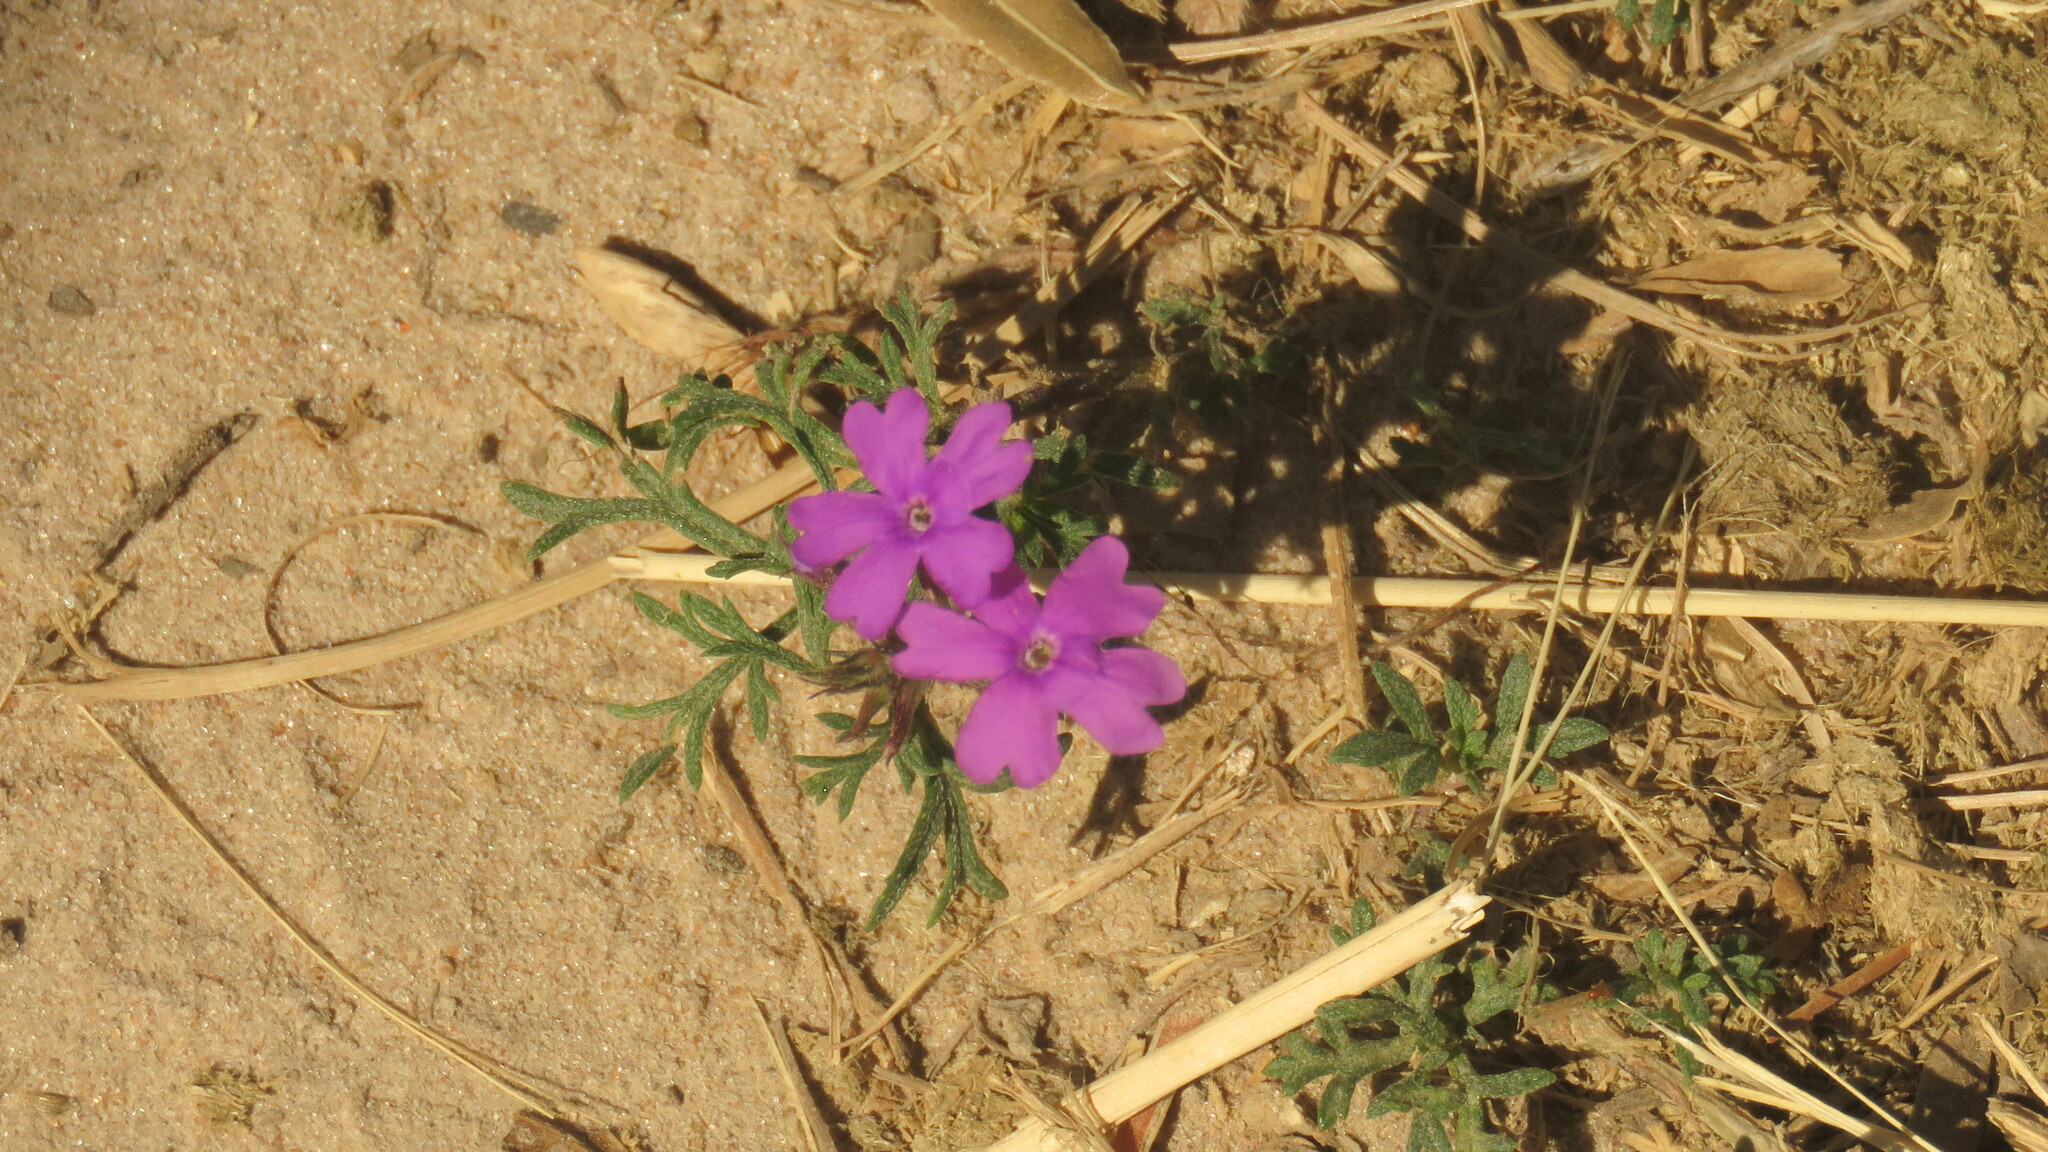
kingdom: Plantae
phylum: Tracheophyta
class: Magnoliopsida
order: Lamiales
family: Verbenaceae
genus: Verbena
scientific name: Verbena aristigera
